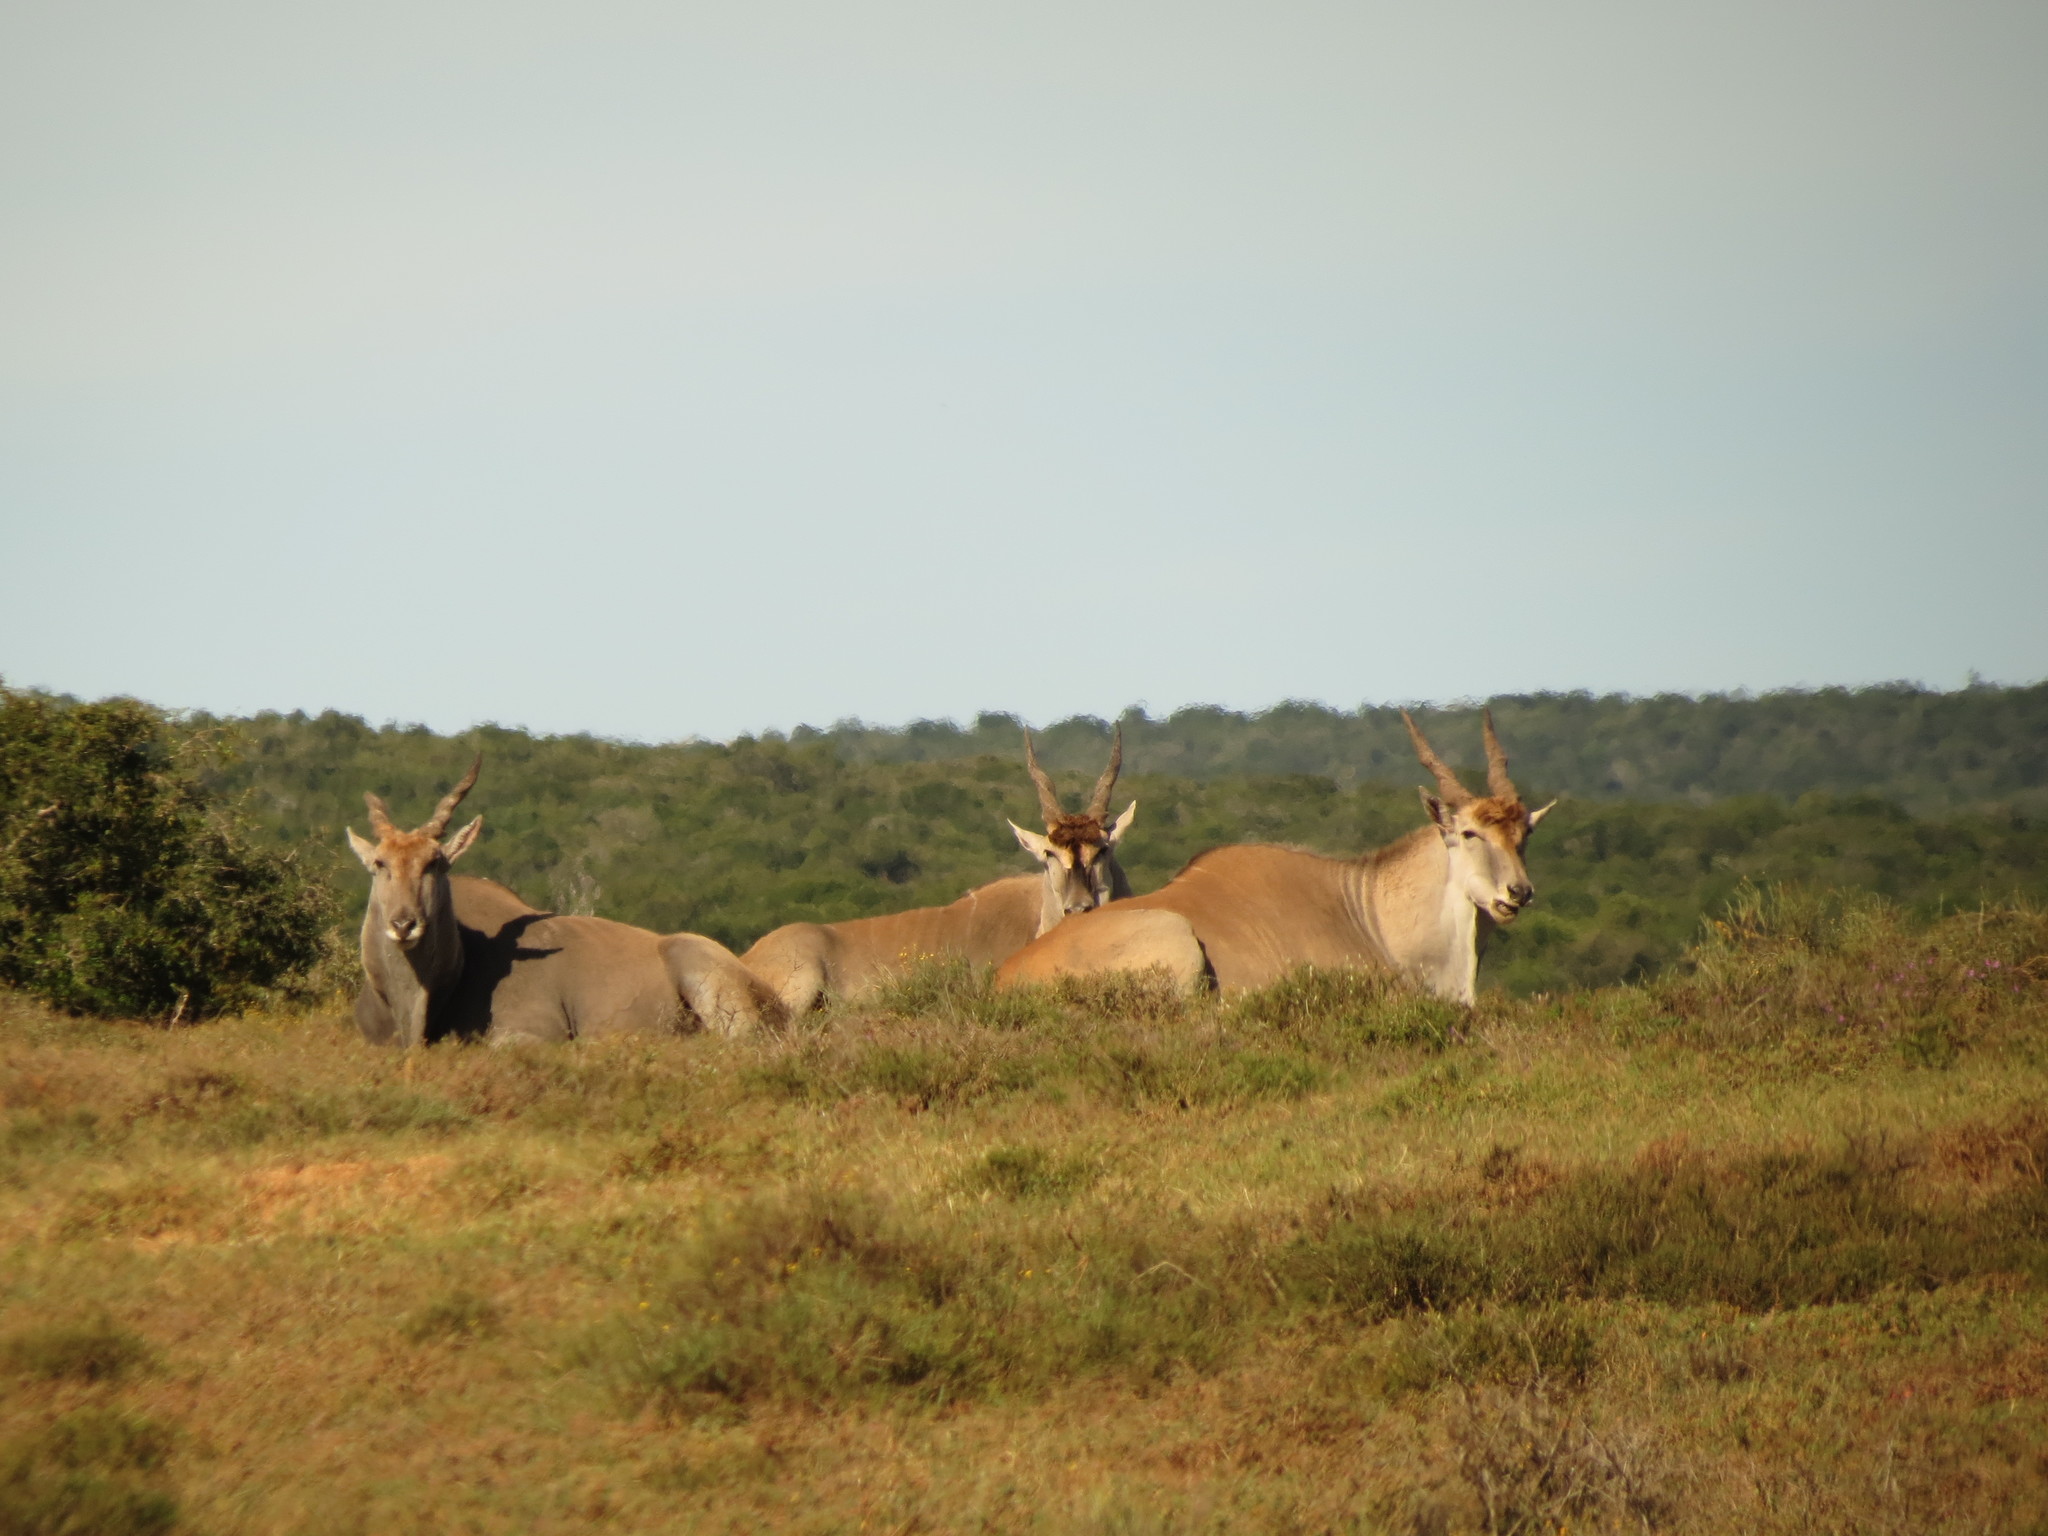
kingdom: Animalia
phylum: Chordata
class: Mammalia
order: Artiodactyla
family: Bovidae
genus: Taurotragus
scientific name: Taurotragus oryx
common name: Common eland
